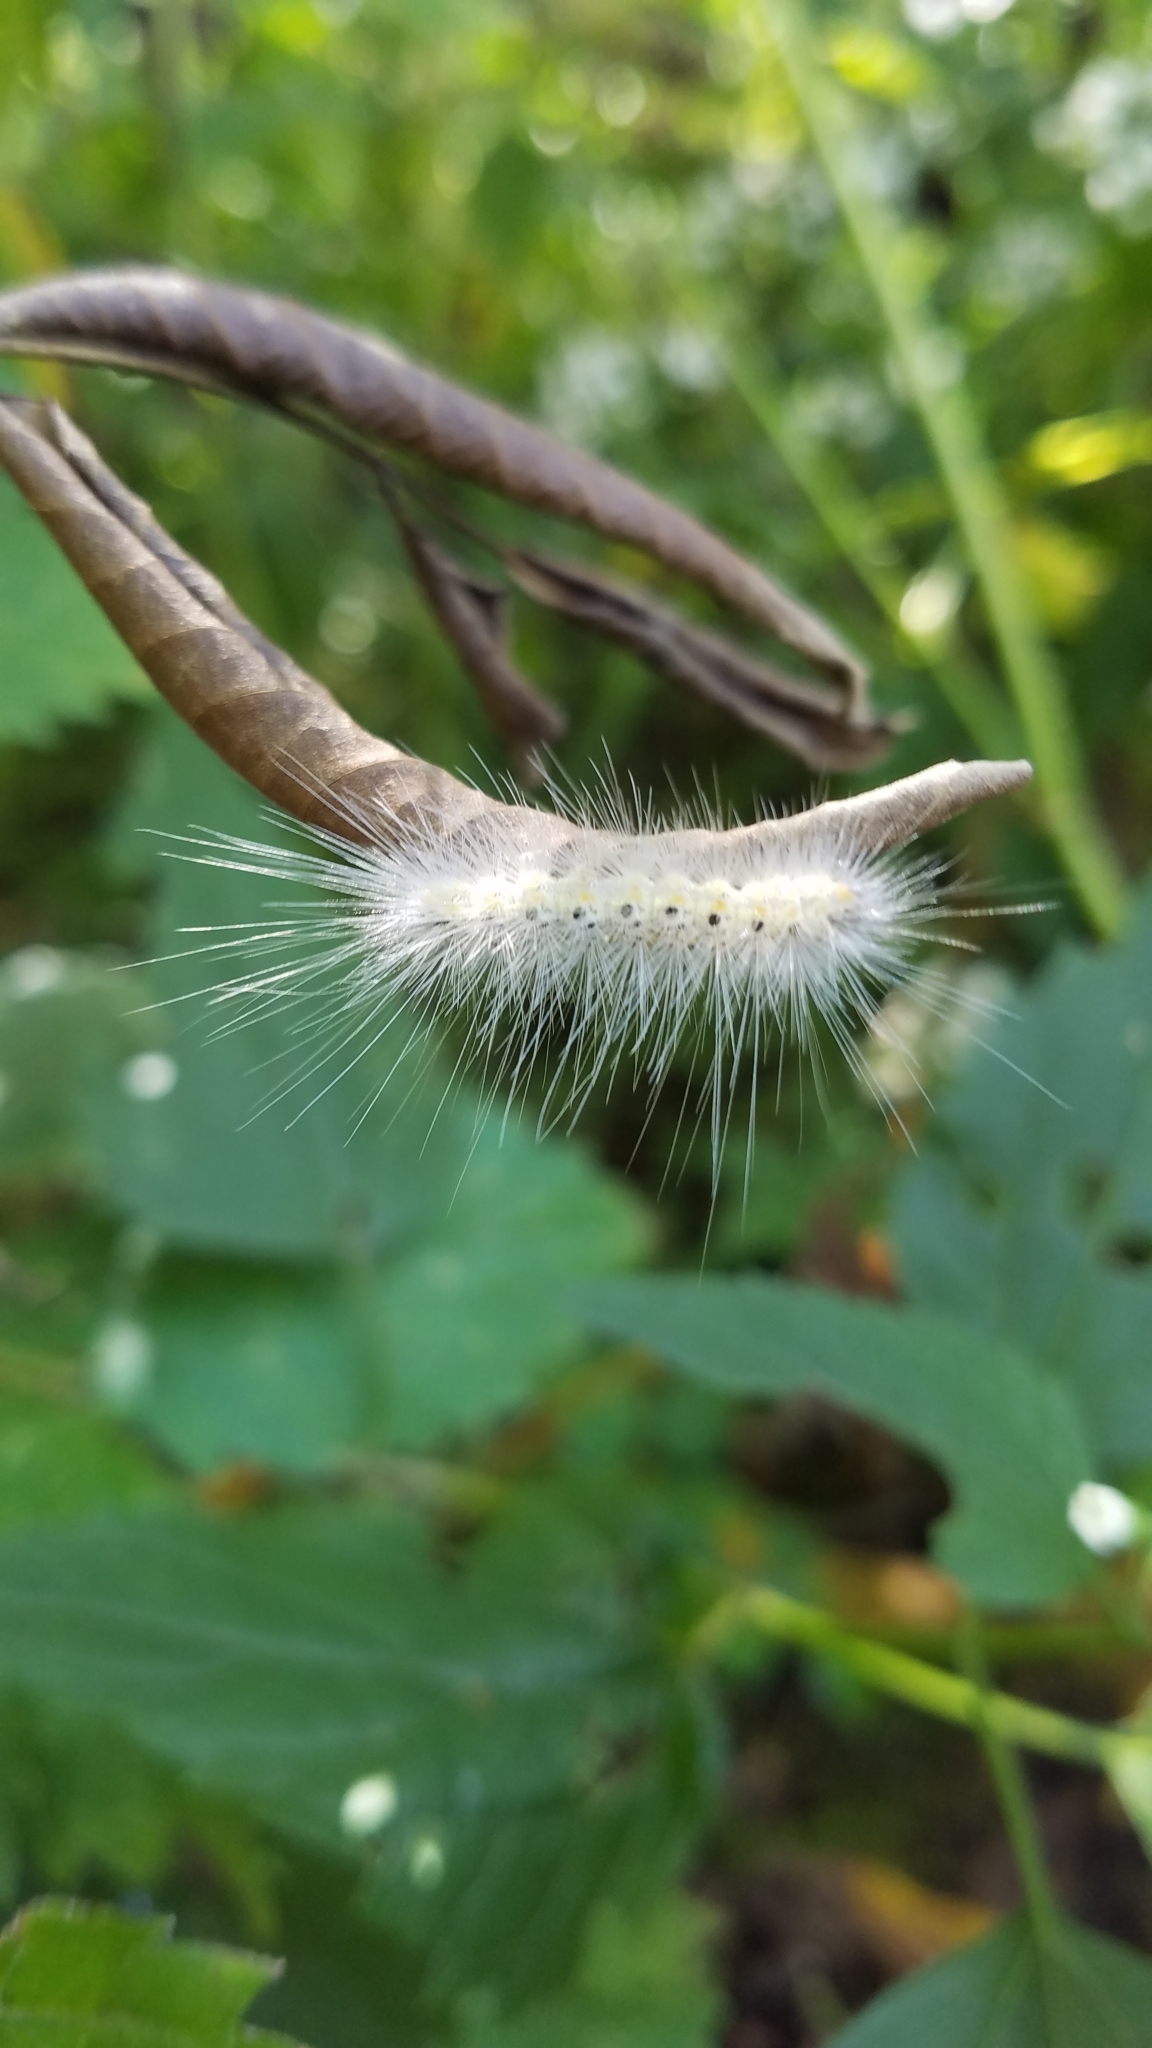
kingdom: Animalia
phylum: Arthropoda
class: Insecta
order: Lepidoptera
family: Erebidae
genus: Hyphantria
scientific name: Hyphantria cunea
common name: American white moth
